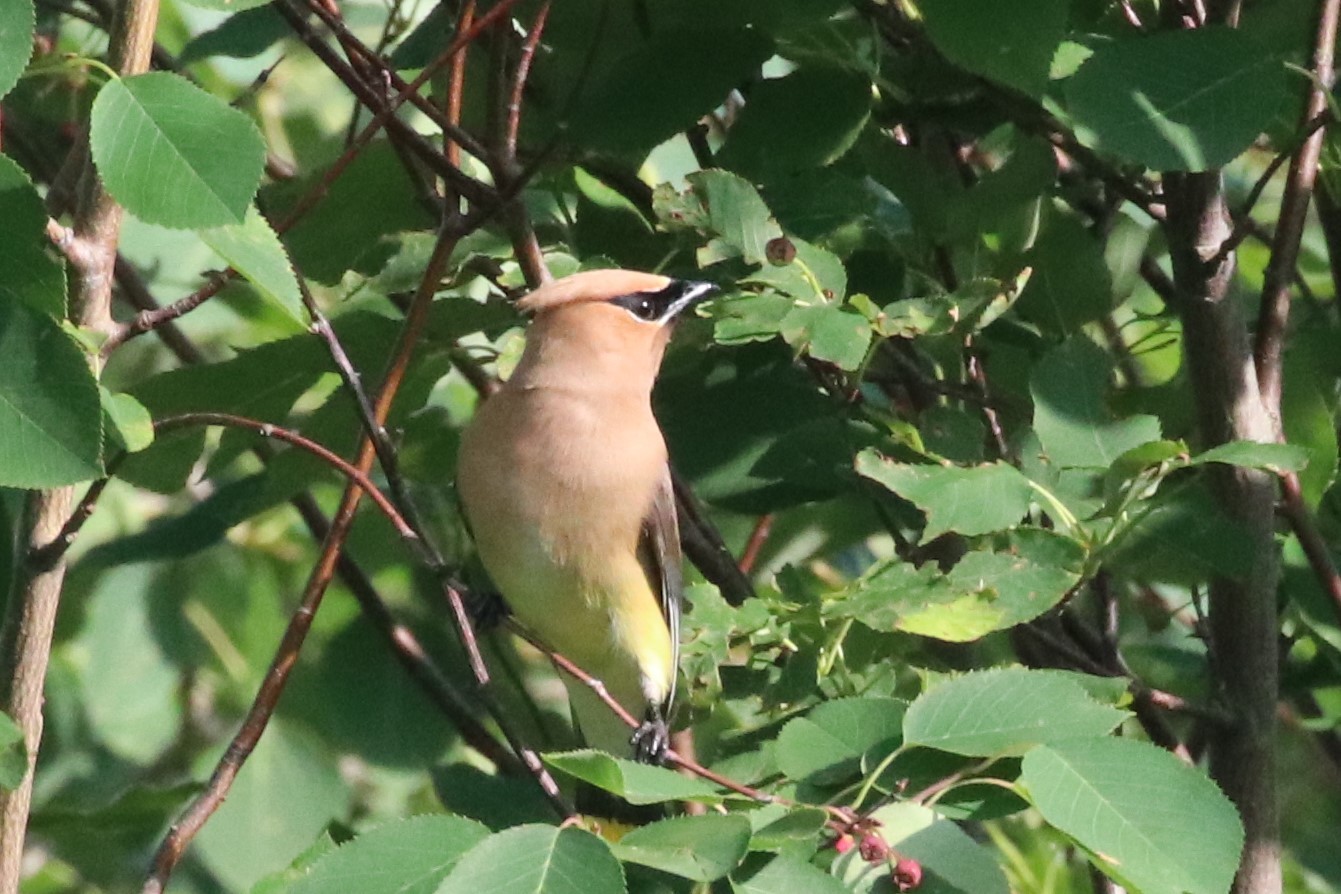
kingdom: Animalia
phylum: Chordata
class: Aves
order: Passeriformes
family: Bombycillidae
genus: Bombycilla
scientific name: Bombycilla cedrorum
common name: Cedar waxwing
